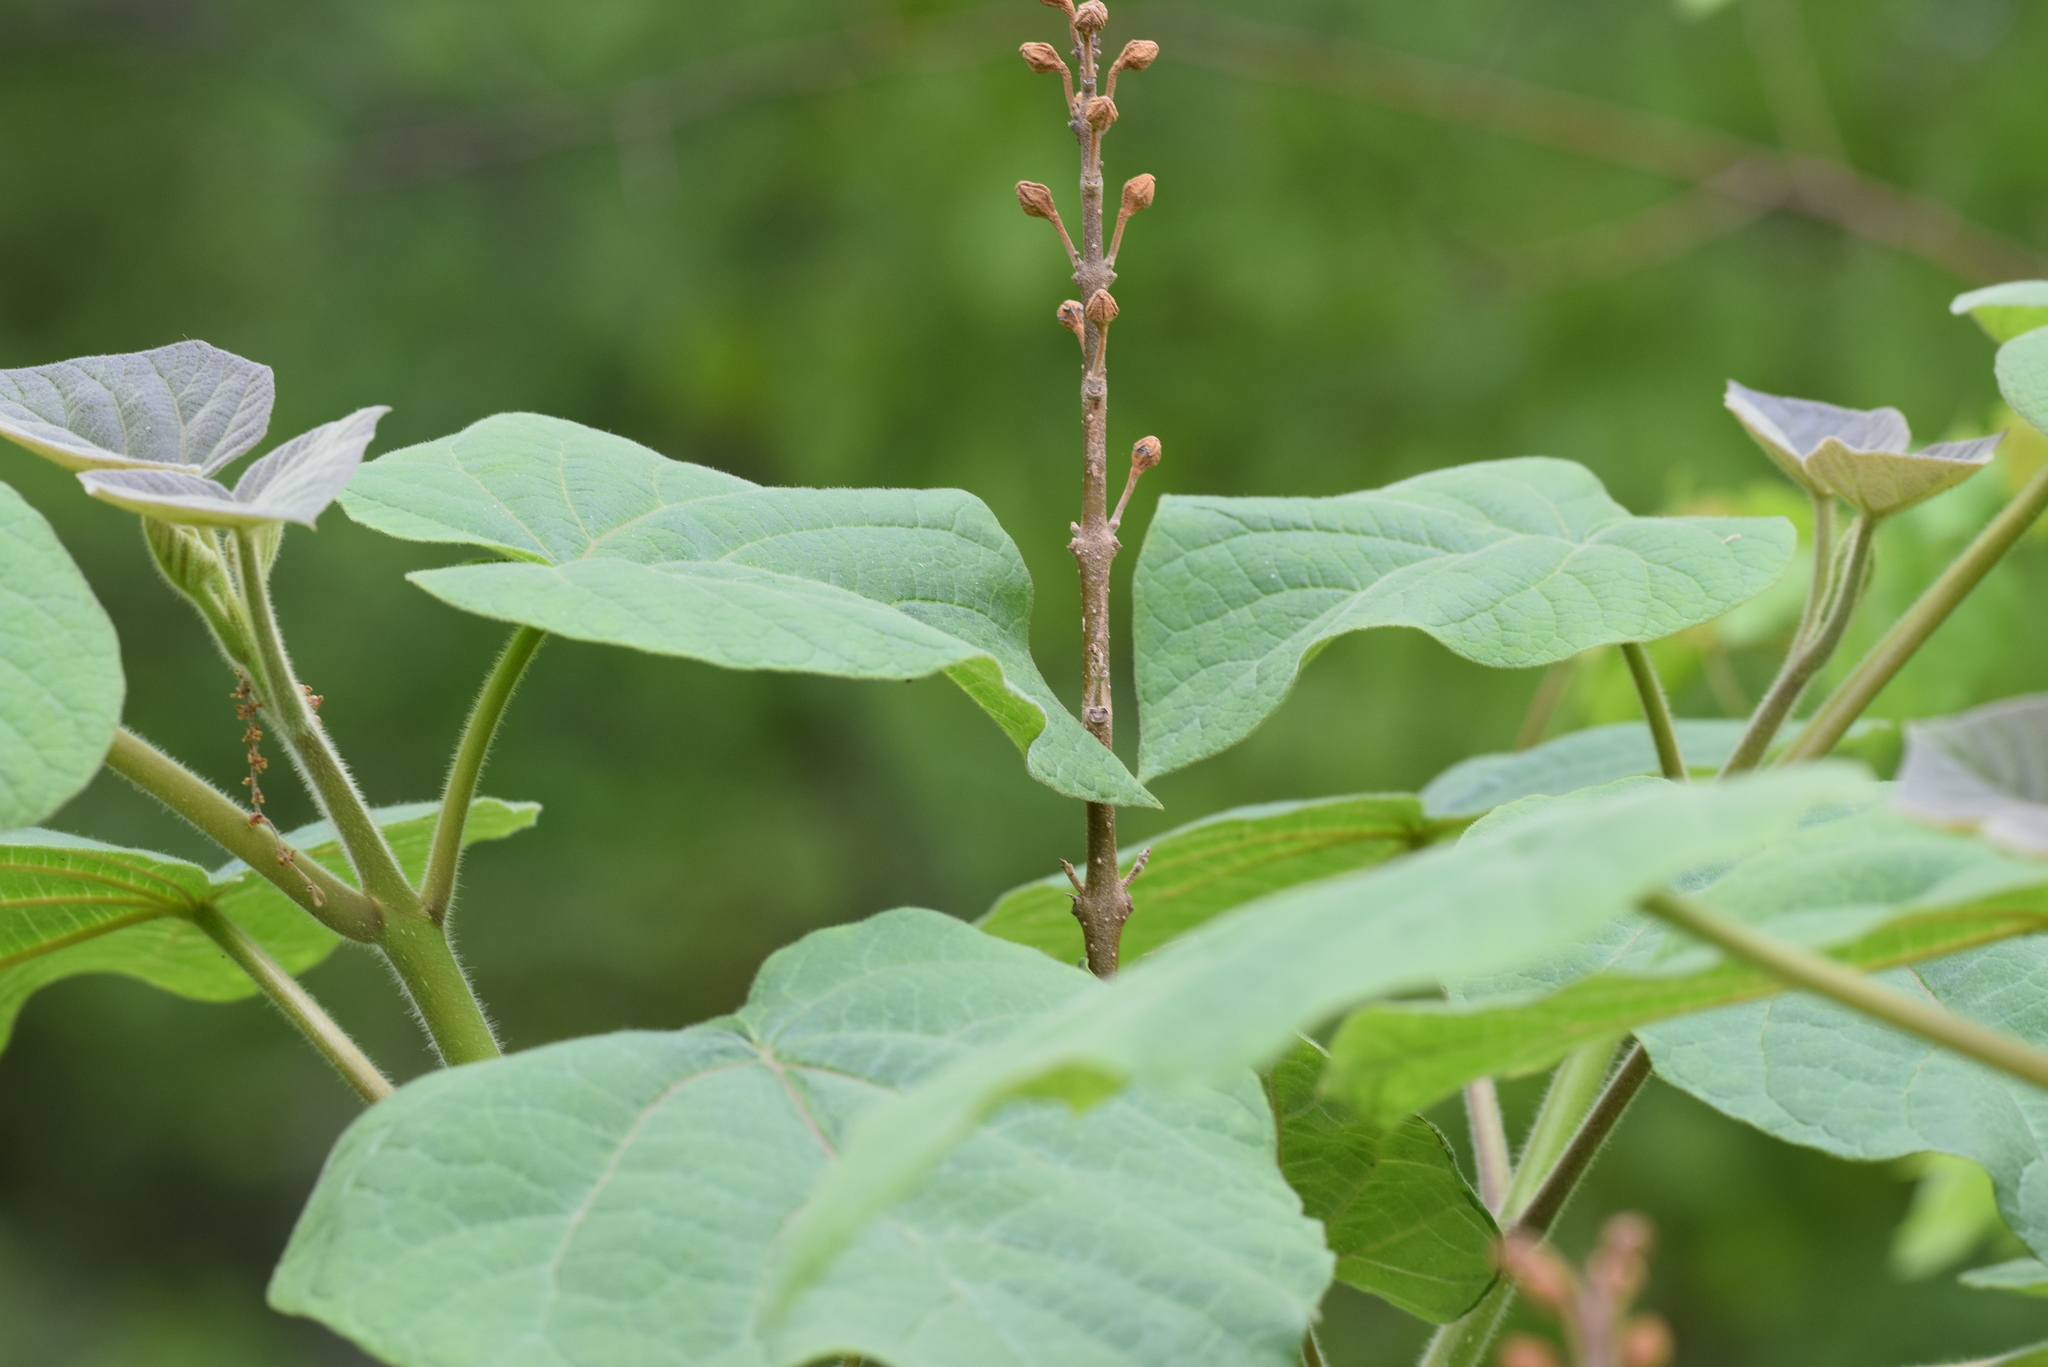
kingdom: Plantae
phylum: Tracheophyta
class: Magnoliopsida
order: Lamiales
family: Paulowniaceae
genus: Paulownia
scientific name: Paulownia tomentosa
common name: Foxglove-tree
